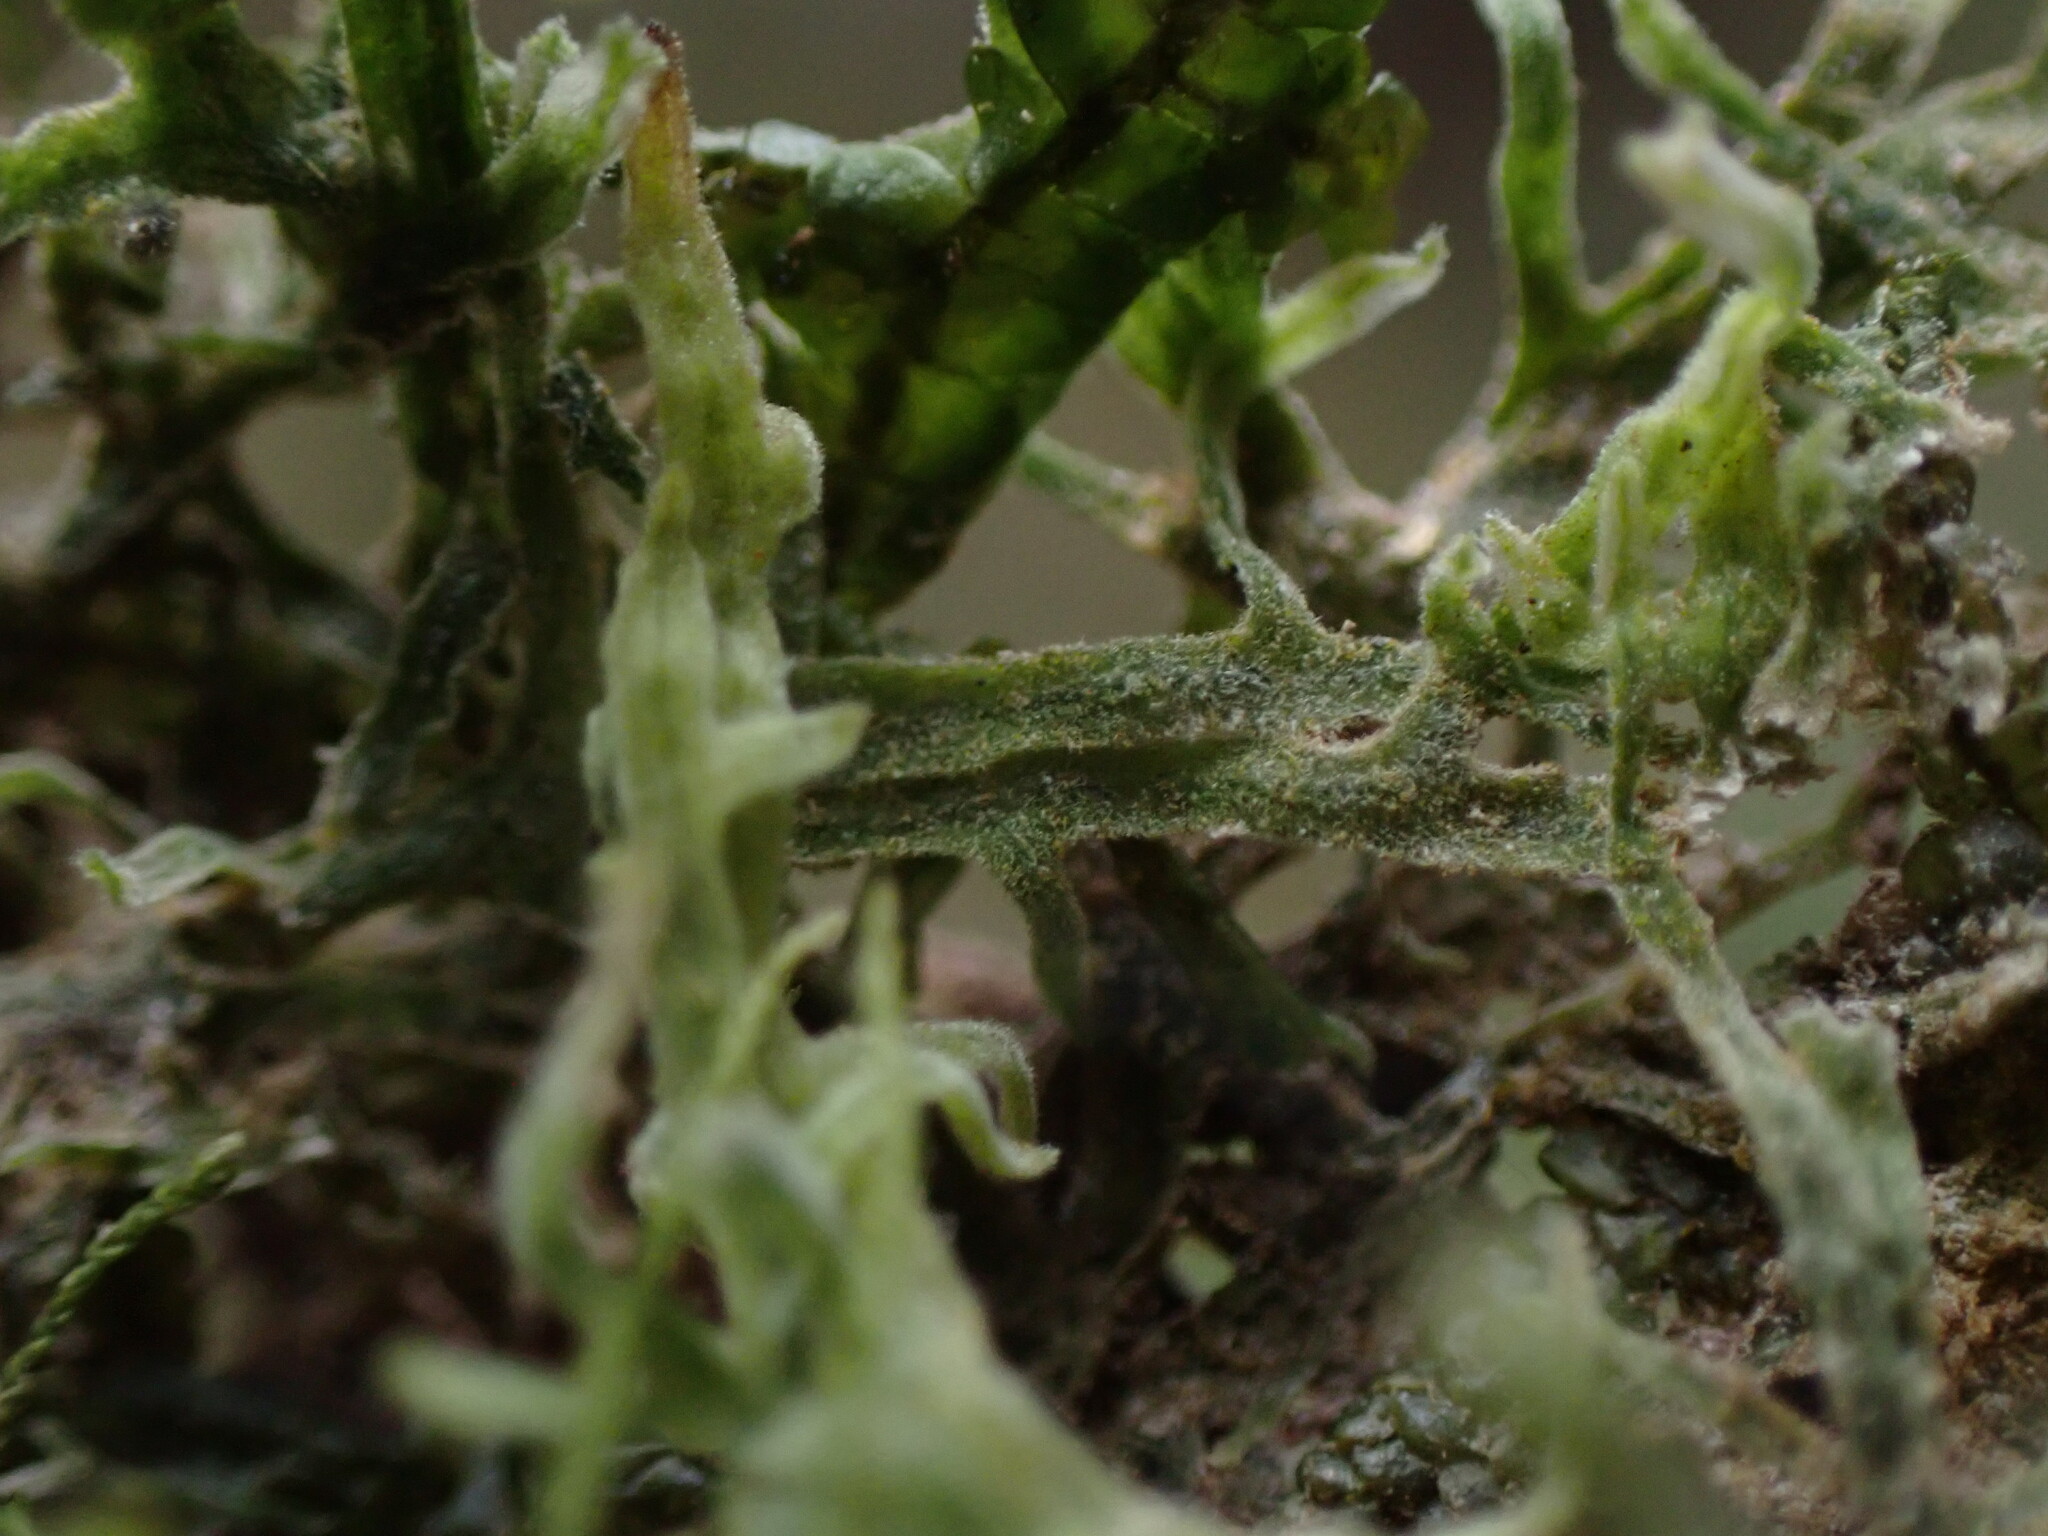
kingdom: Plantae
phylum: Marchantiophyta
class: Jungermanniopsida
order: Metzgeriales
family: Metzgeriaceae
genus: Metzgeria
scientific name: Metzgeria pubescens
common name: Downy veilwort
